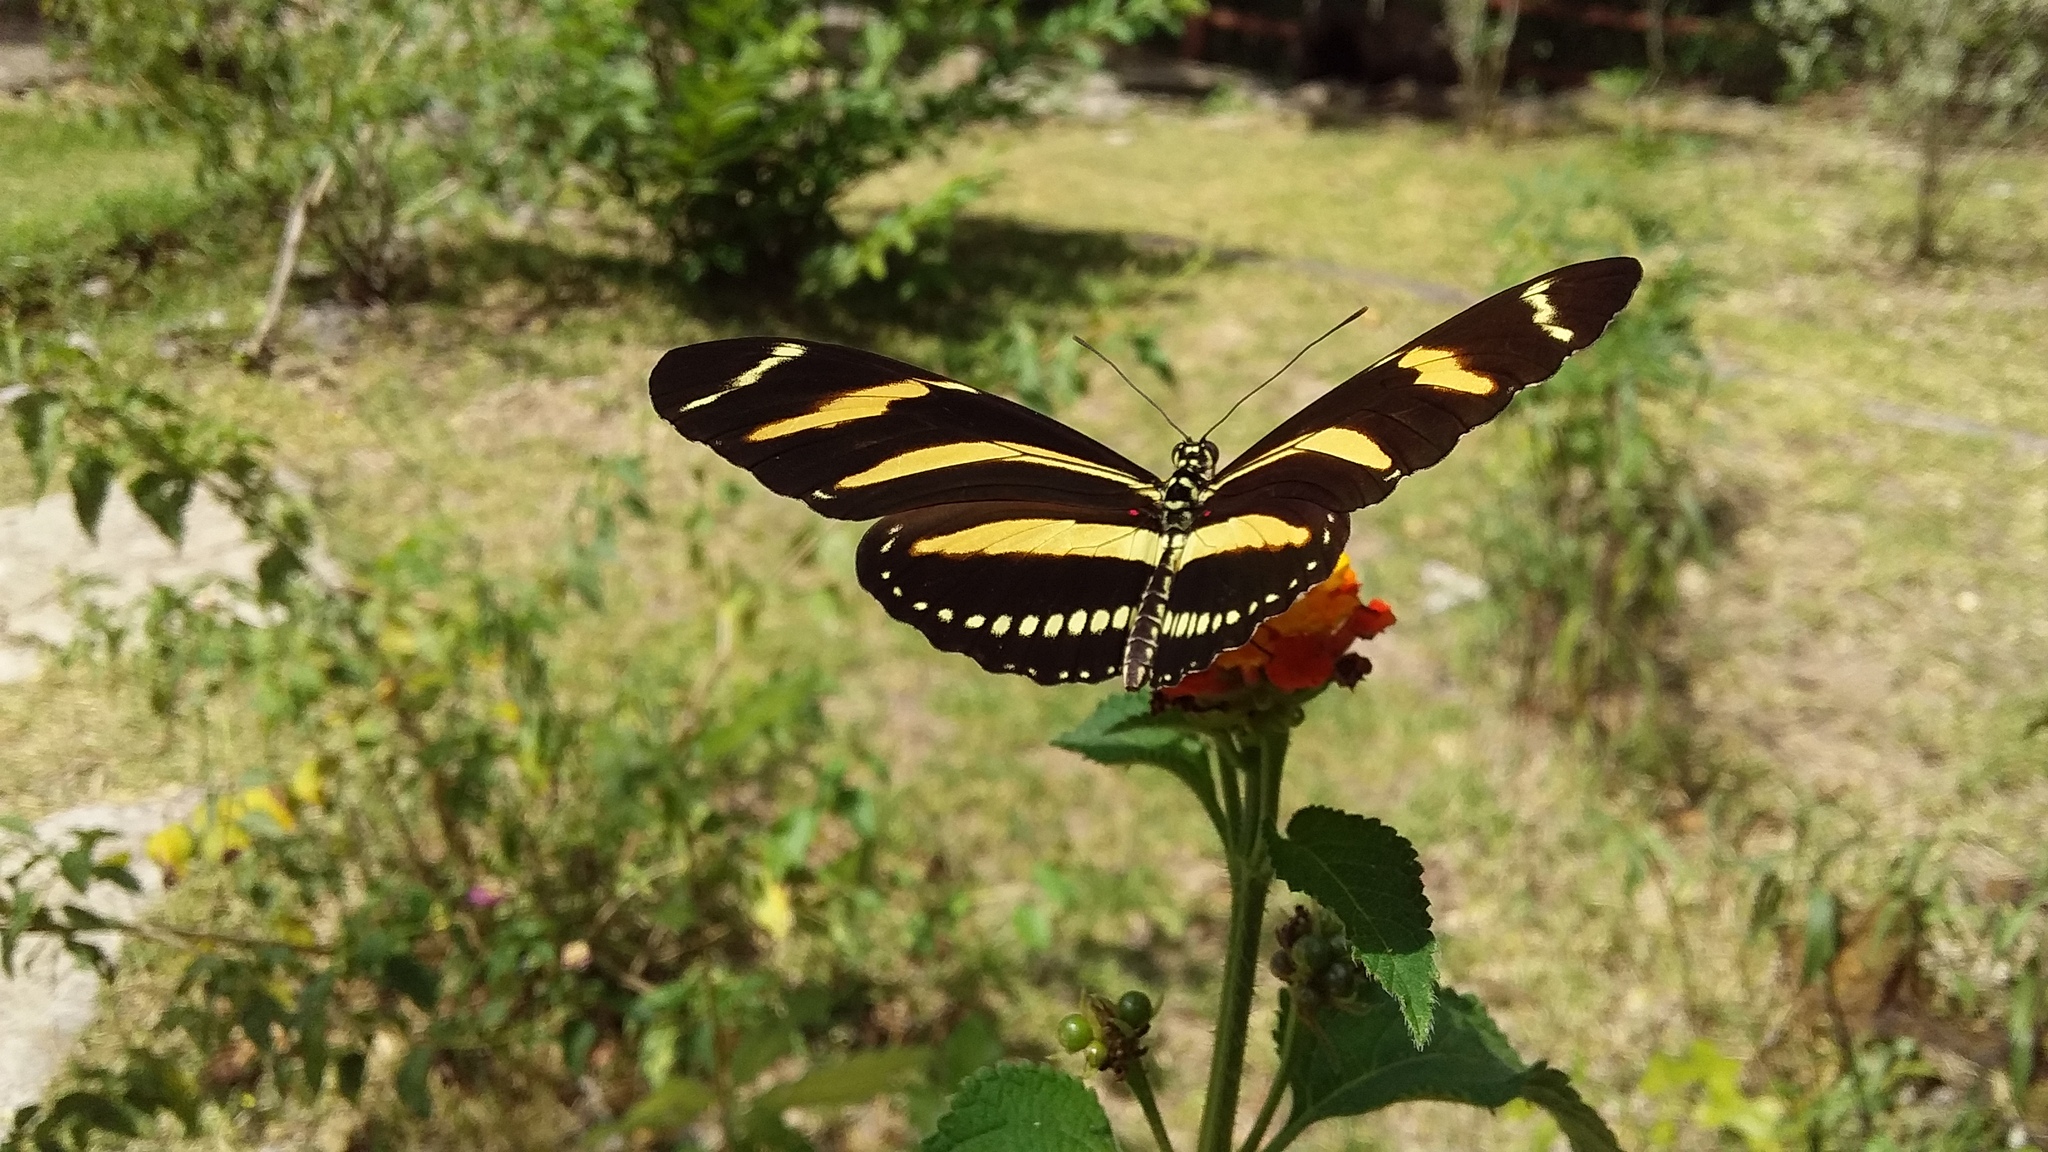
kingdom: Animalia
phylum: Arthropoda
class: Insecta
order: Lepidoptera
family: Nymphalidae
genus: Heliconius
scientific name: Heliconius charithonia
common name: Zebra long wing
